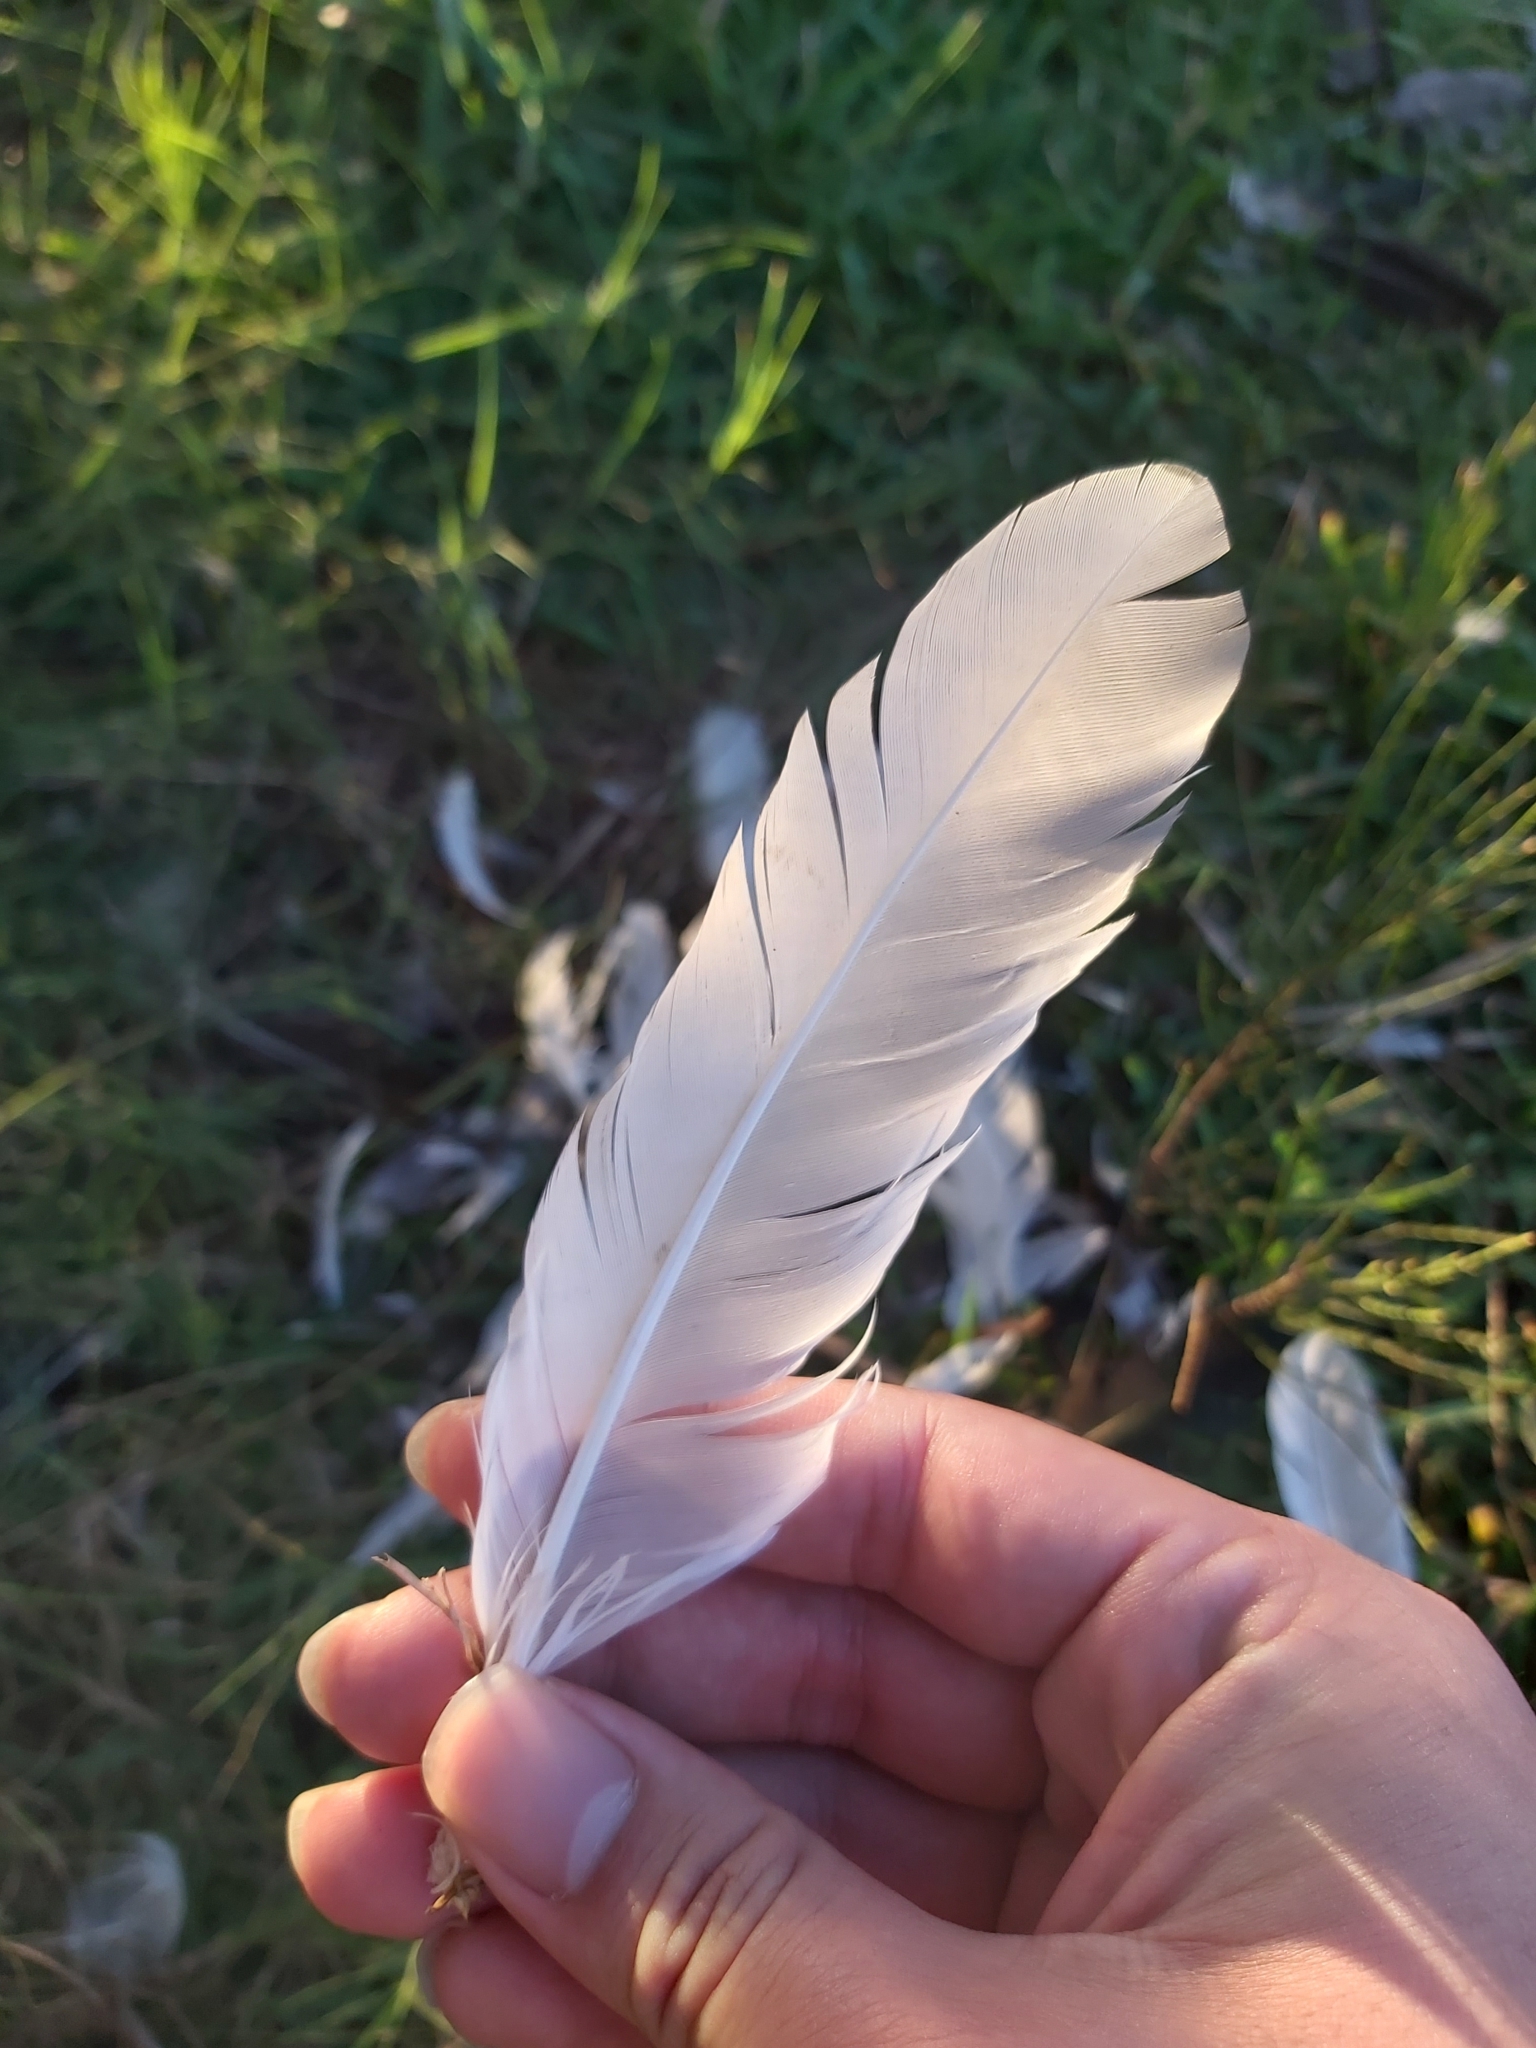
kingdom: Animalia
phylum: Chordata
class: Aves
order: Anseriformes
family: Anatidae
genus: Cygnus
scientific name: Cygnus atratus
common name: Black swan
